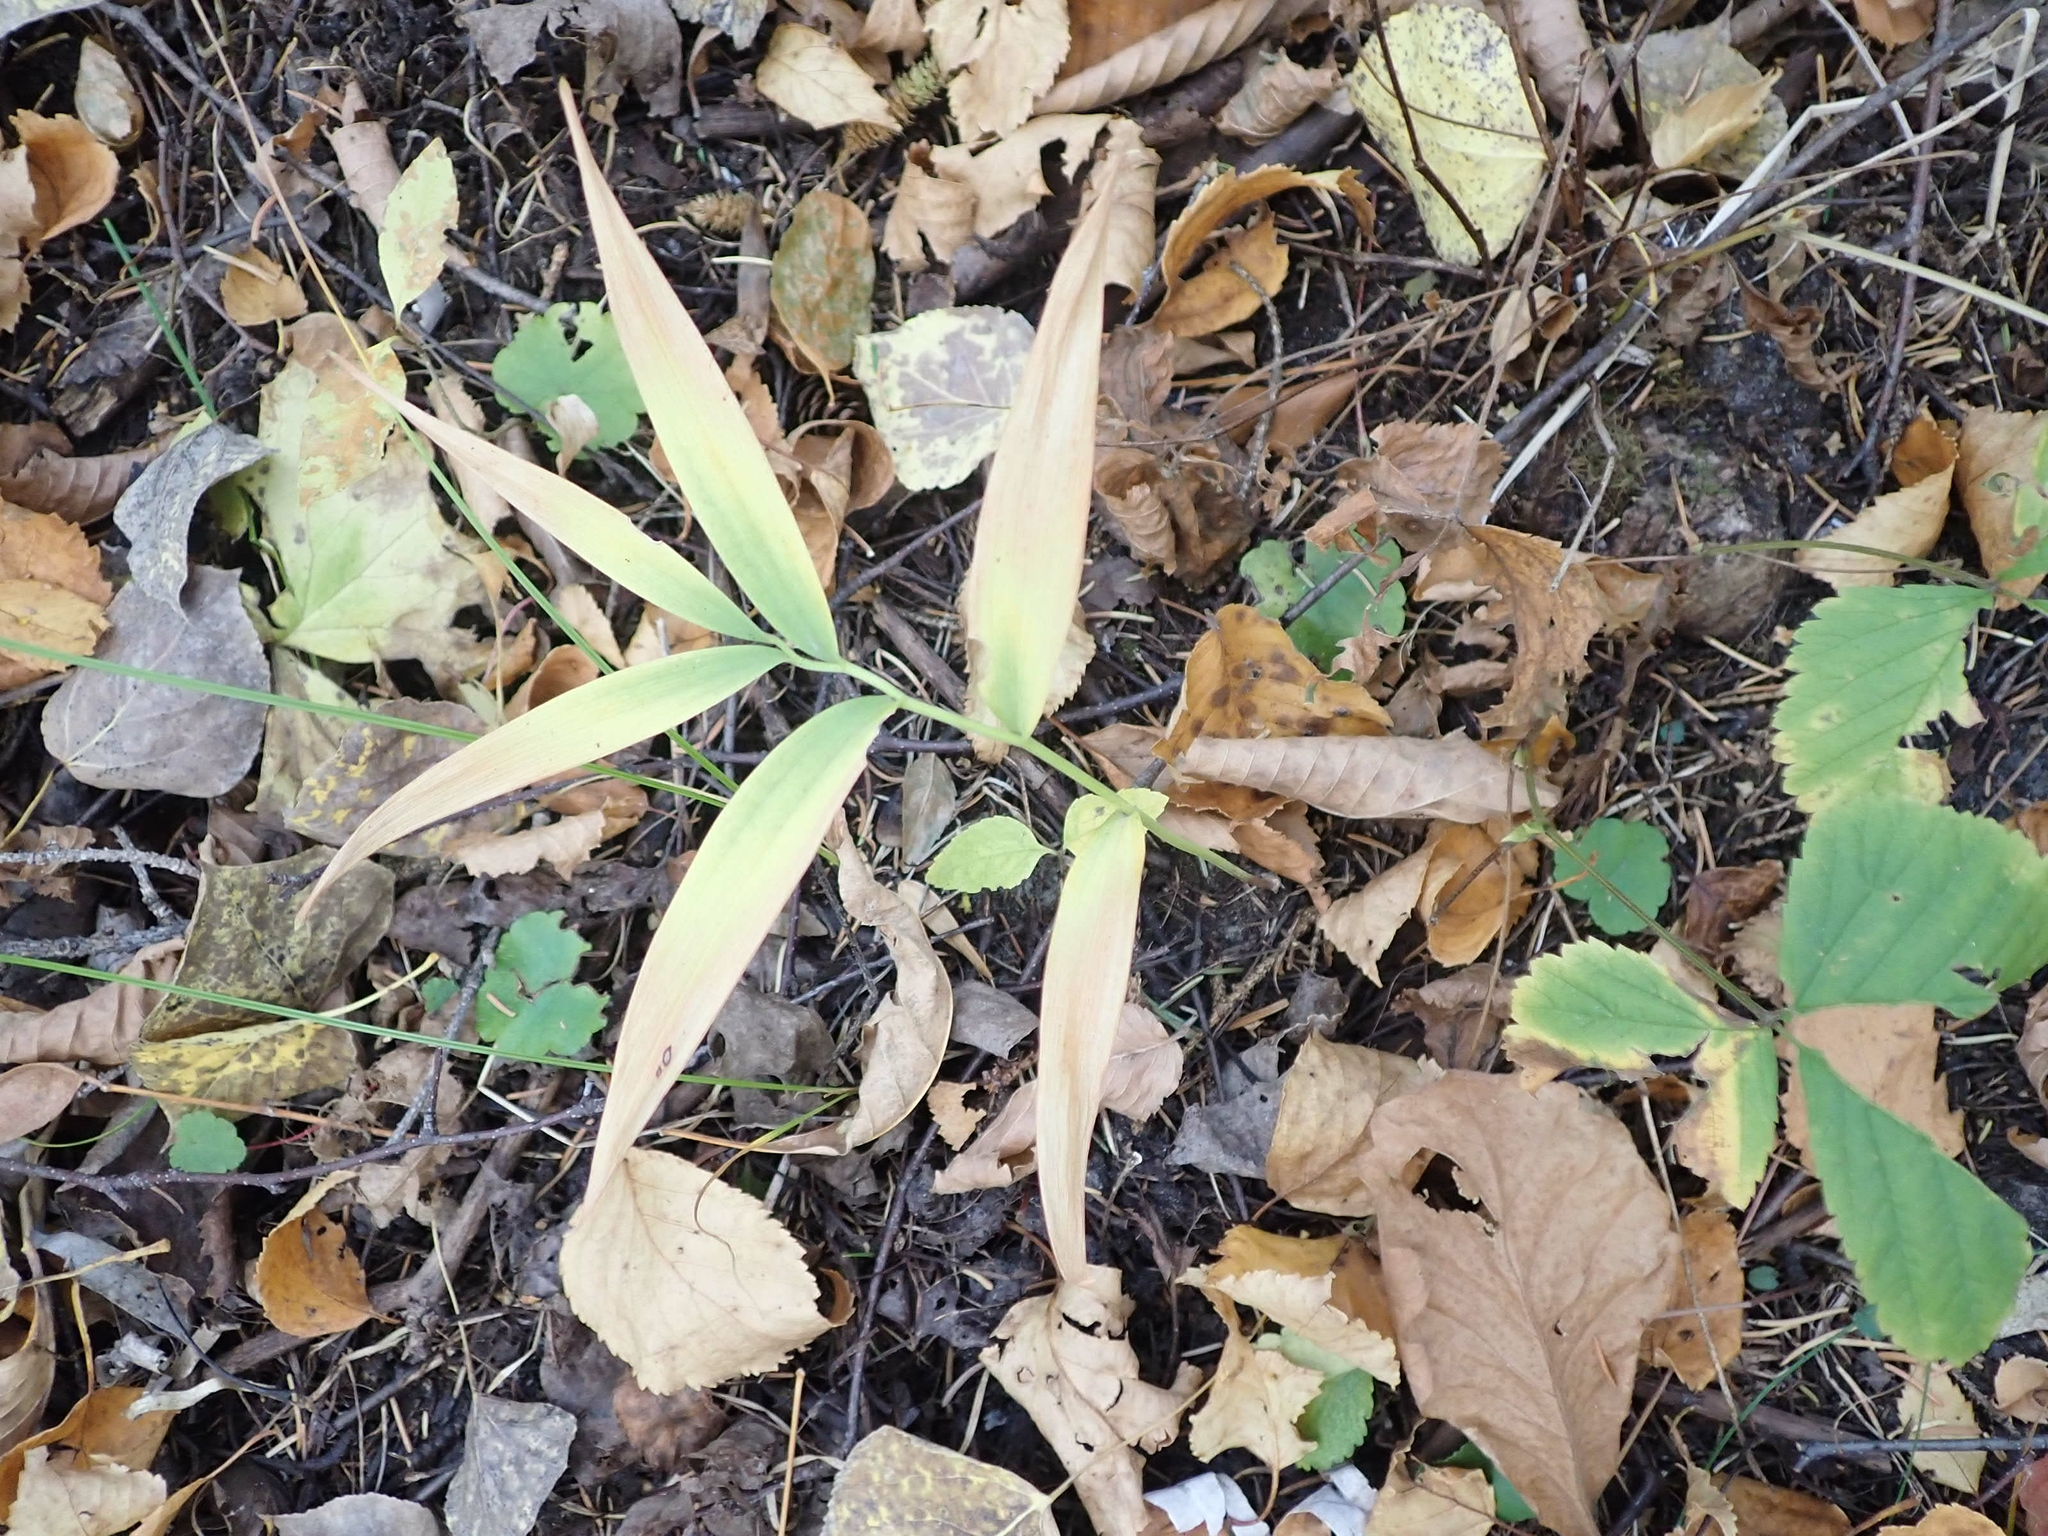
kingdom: Plantae
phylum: Tracheophyta
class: Liliopsida
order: Asparagales
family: Asparagaceae
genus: Maianthemum
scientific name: Maianthemum stellatum
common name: Little false solomon's seal
